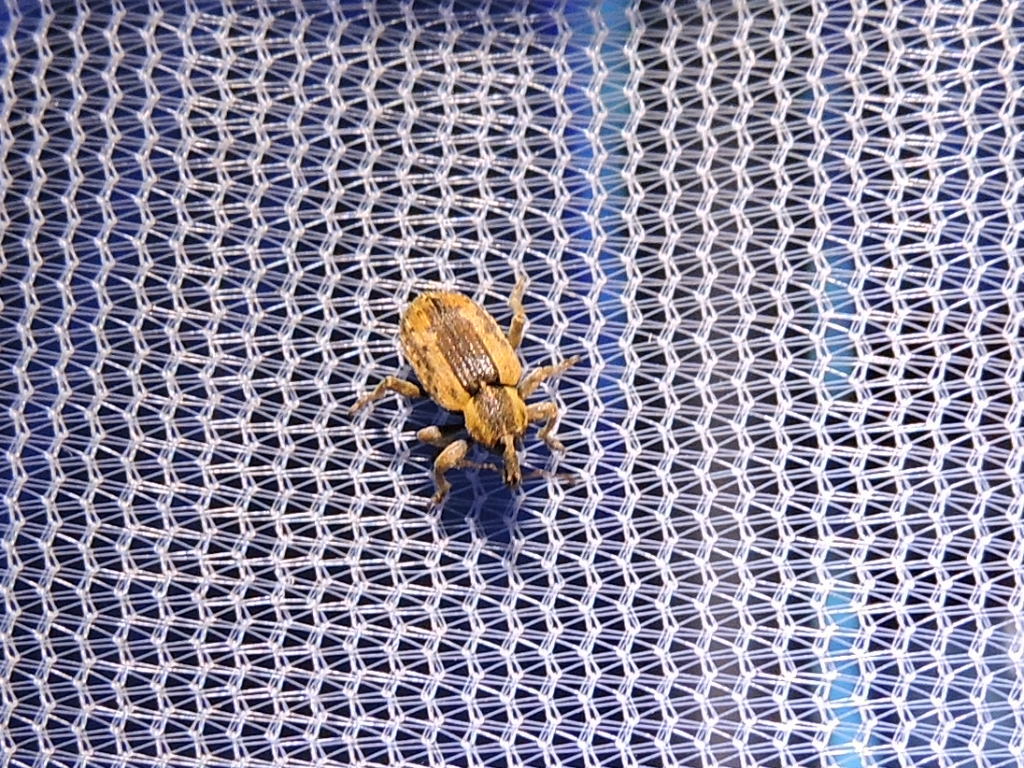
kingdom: Animalia
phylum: Arthropoda
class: Insecta
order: Coleoptera
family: Curculionidae
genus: Hypera
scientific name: Hypera postica
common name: Weevil
